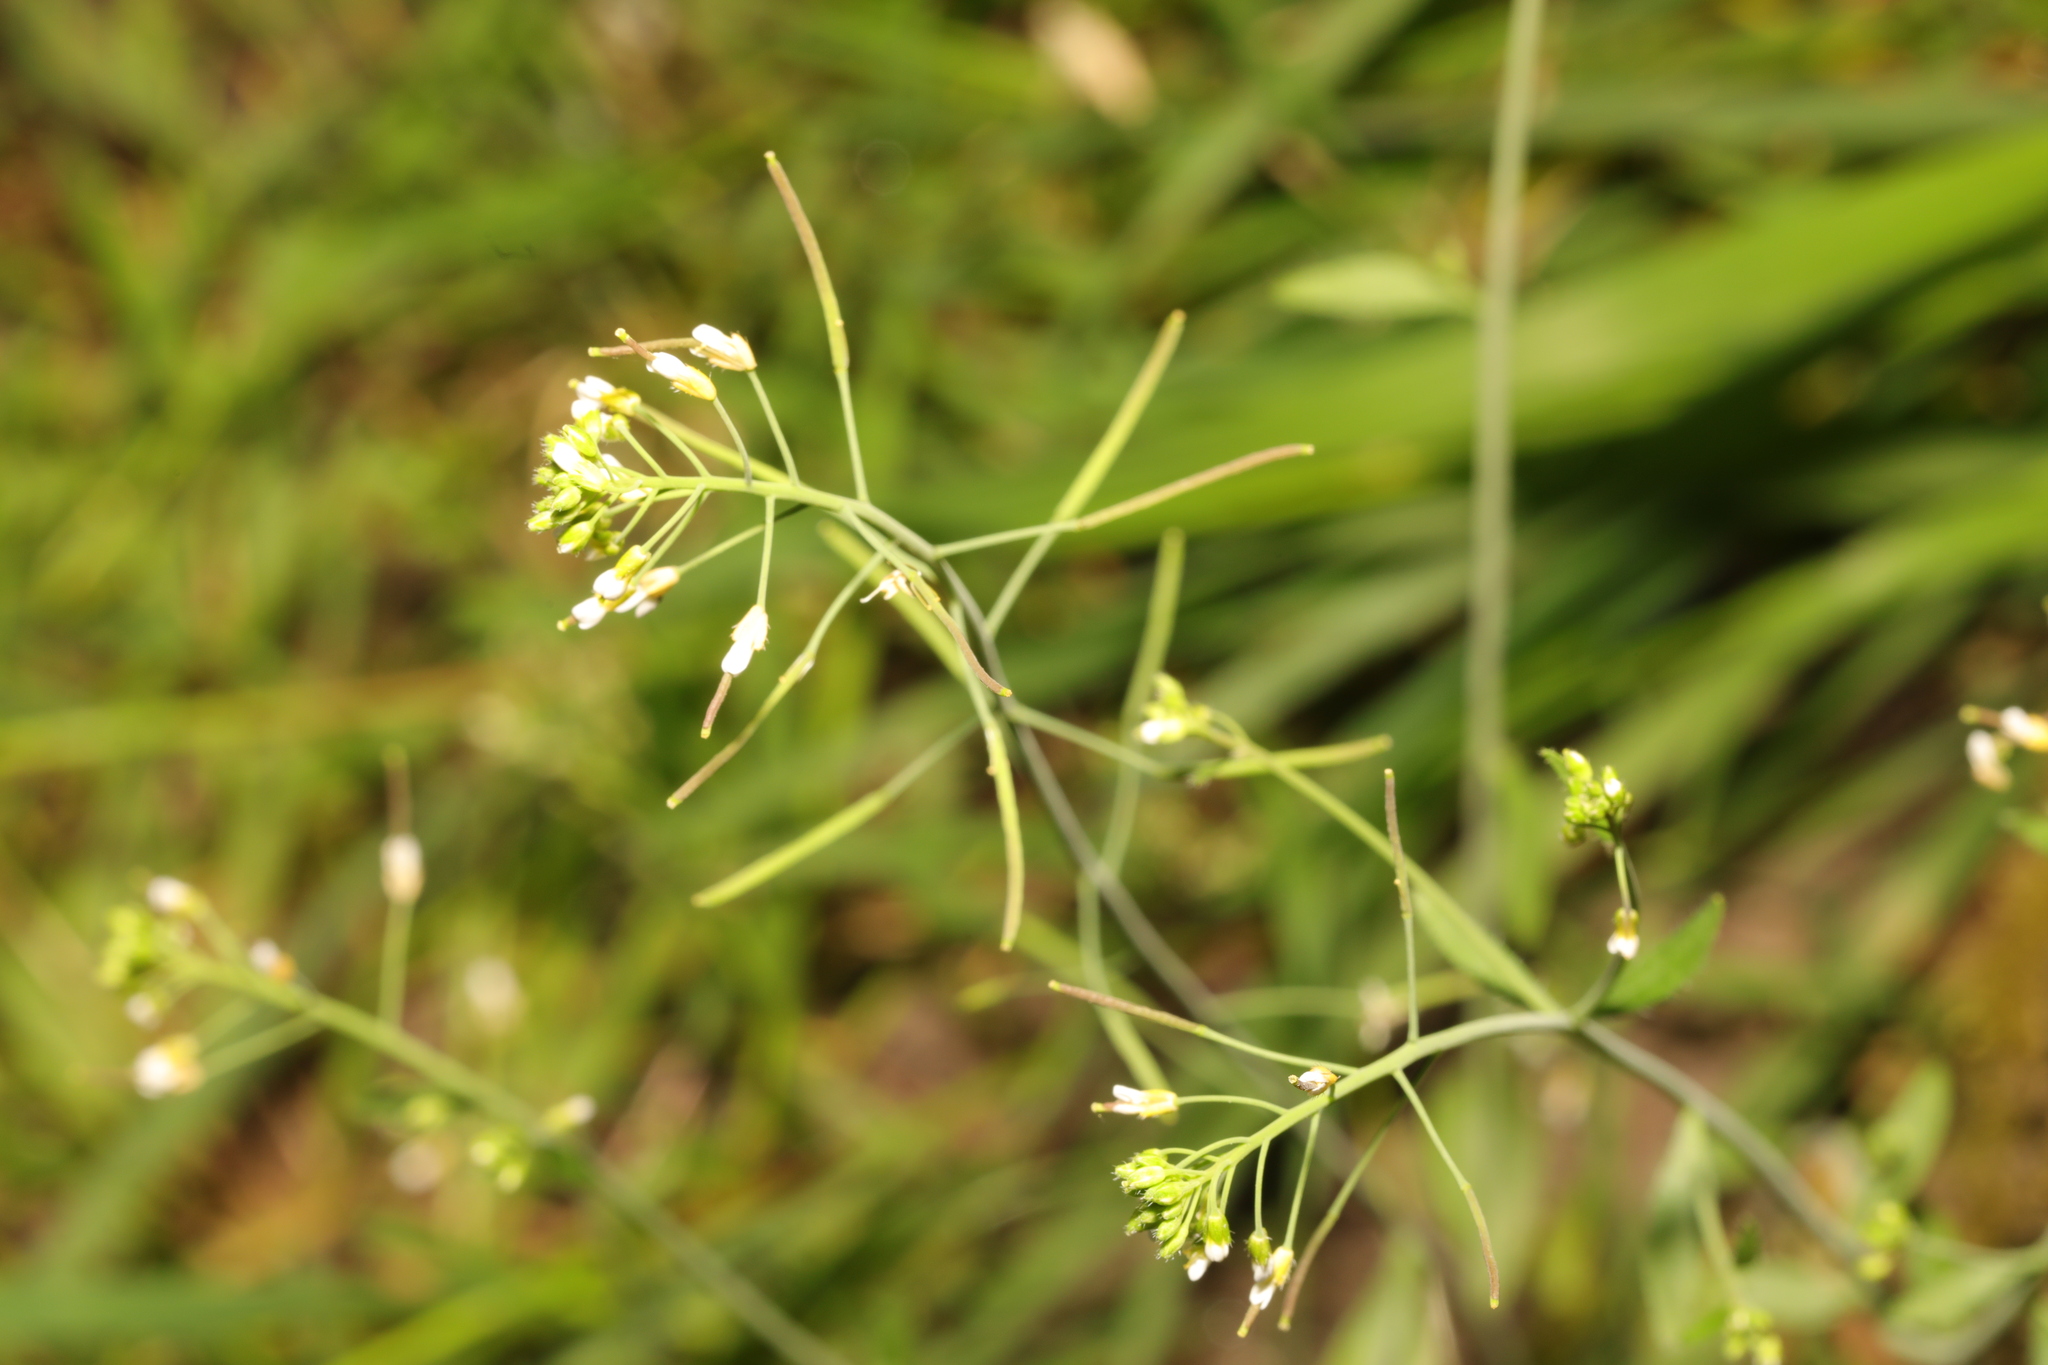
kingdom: Plantae
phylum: Tracheophyta
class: Magnoliopsida
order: Brassicales
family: Brassicaceae
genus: Arabidopsis
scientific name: Arabidopsis thaliana
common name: Thale cress
